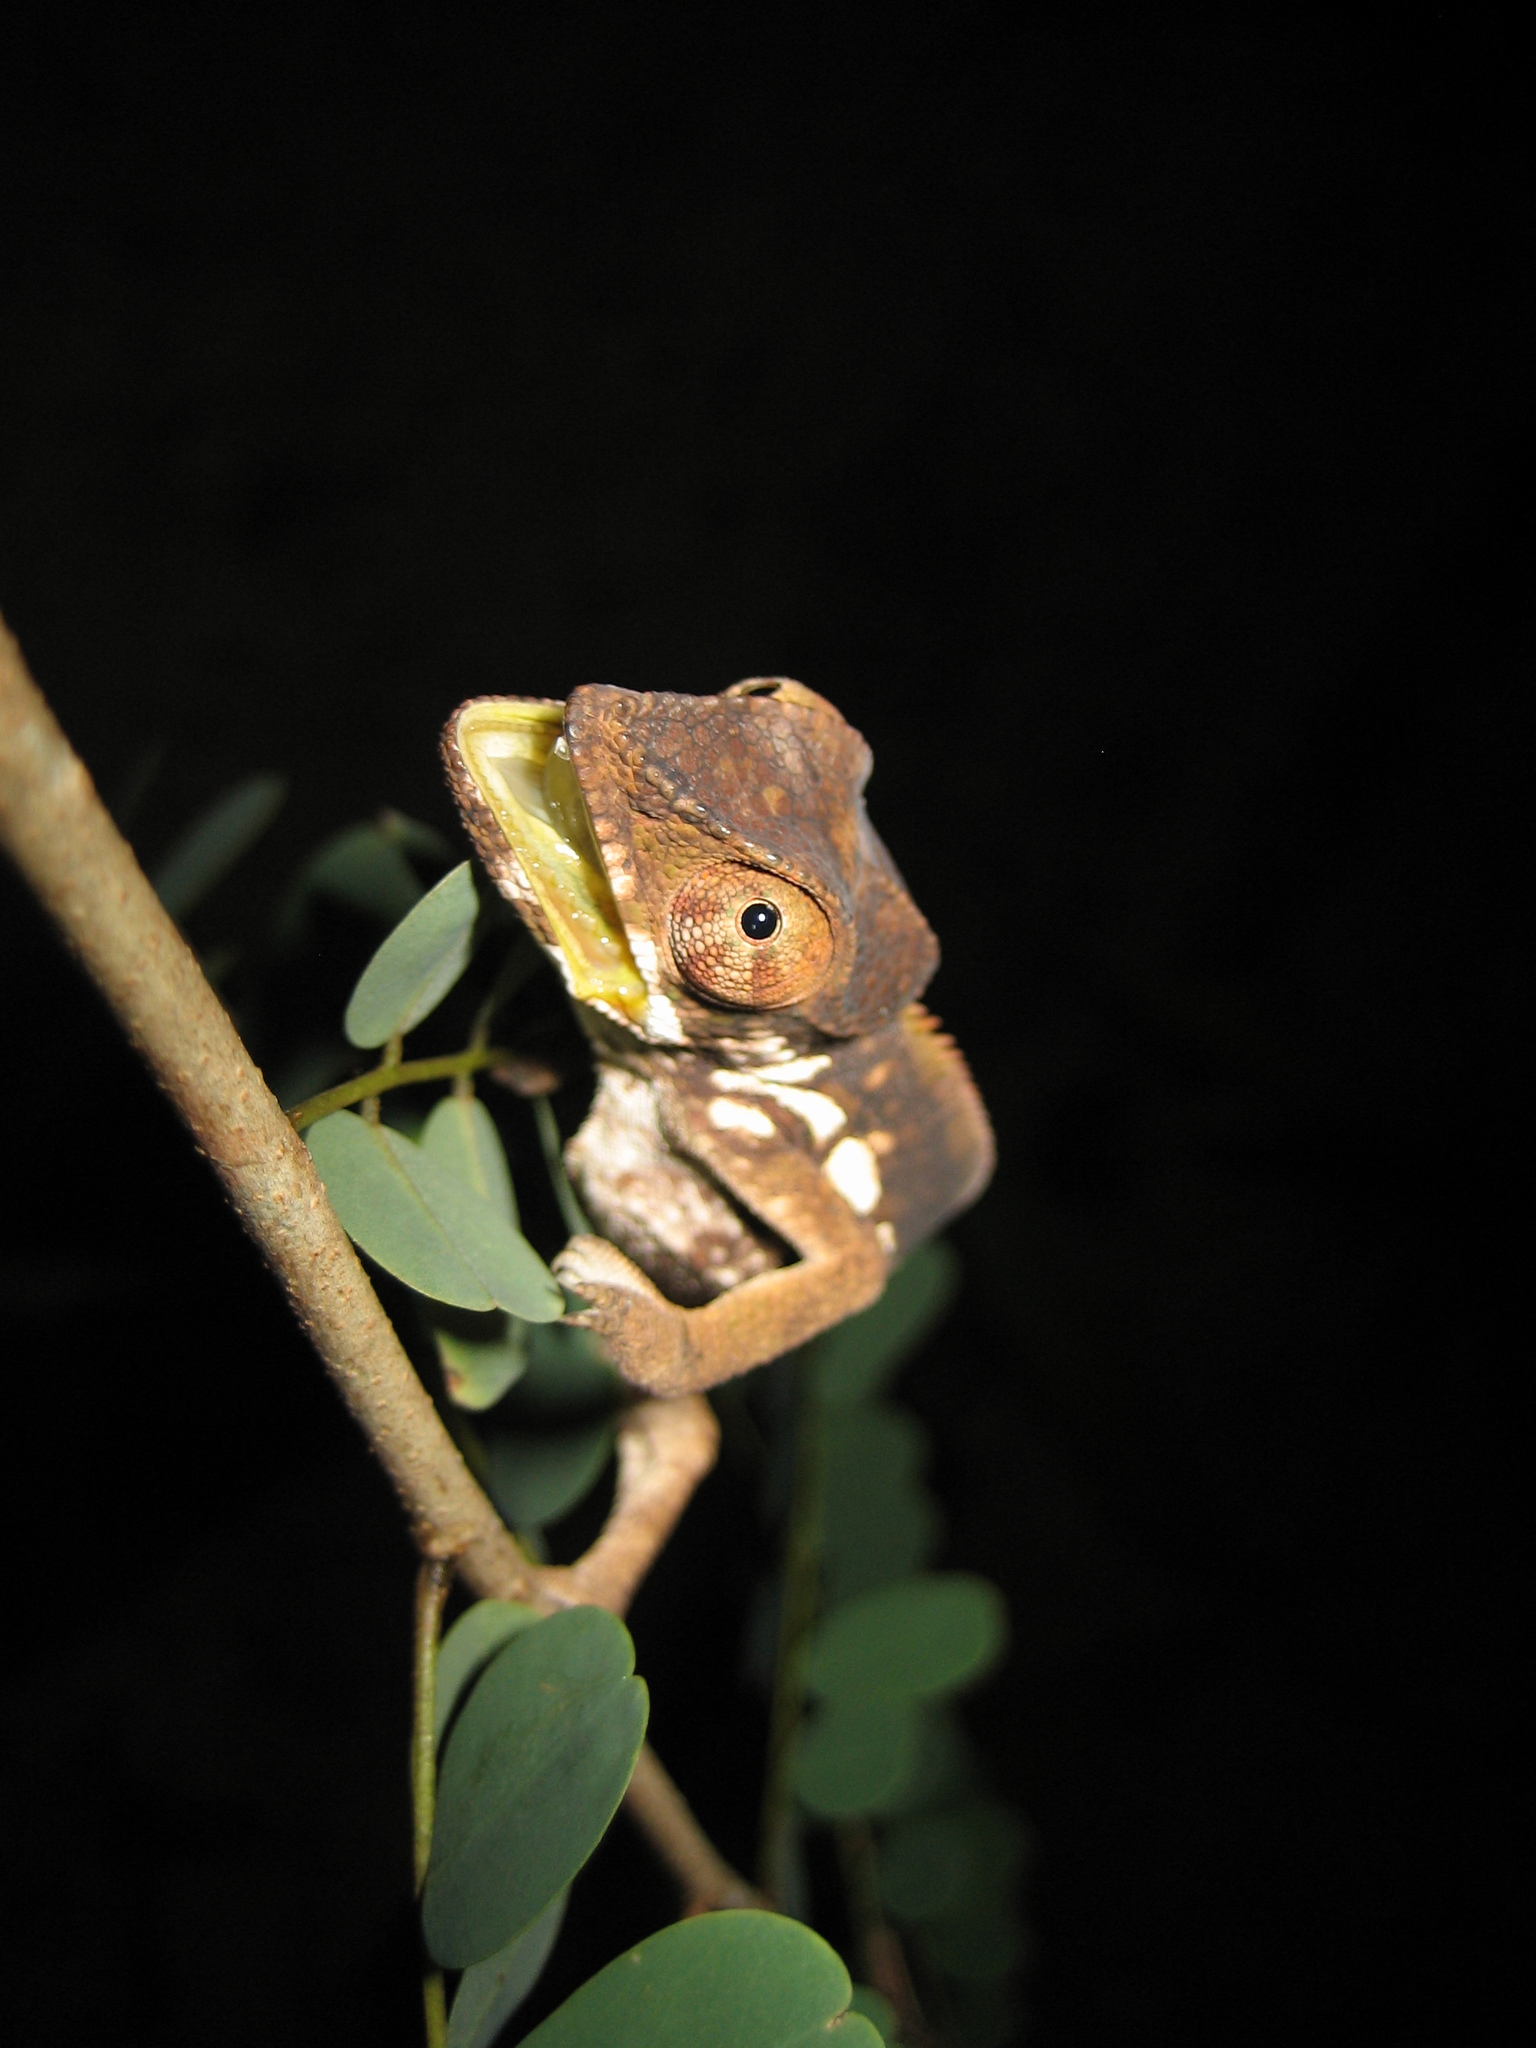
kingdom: Animalia
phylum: Chordata
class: Squamata
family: Chamaeleonidae
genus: Furcifer
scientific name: Furcifer pardalis
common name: Panther chameleon
